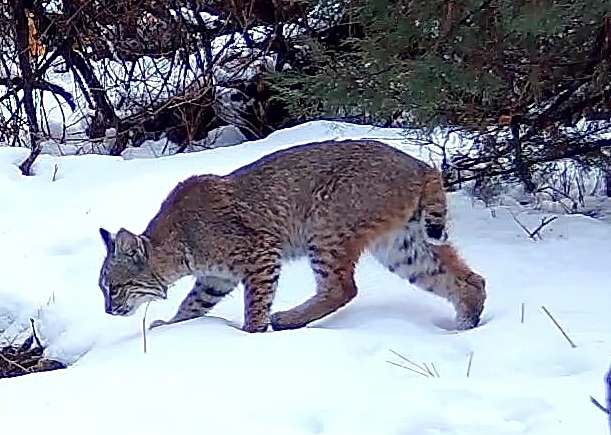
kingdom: Animalia
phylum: Chordata
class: Mammalia
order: Carnivora
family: Felidae
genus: Lynx
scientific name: Lynx rufus
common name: Bobcat
